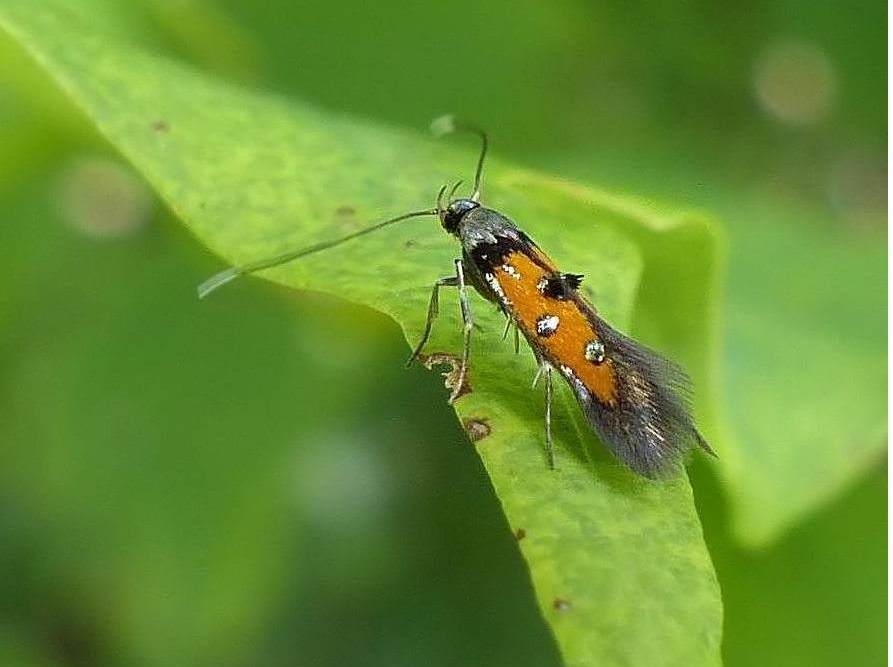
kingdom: Animalia
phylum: Arthropoda
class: Insecta
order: Lepidoptera
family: Elachistidae
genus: Chrysoclista
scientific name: Chrysoclista linneela
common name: Lime cosmet
